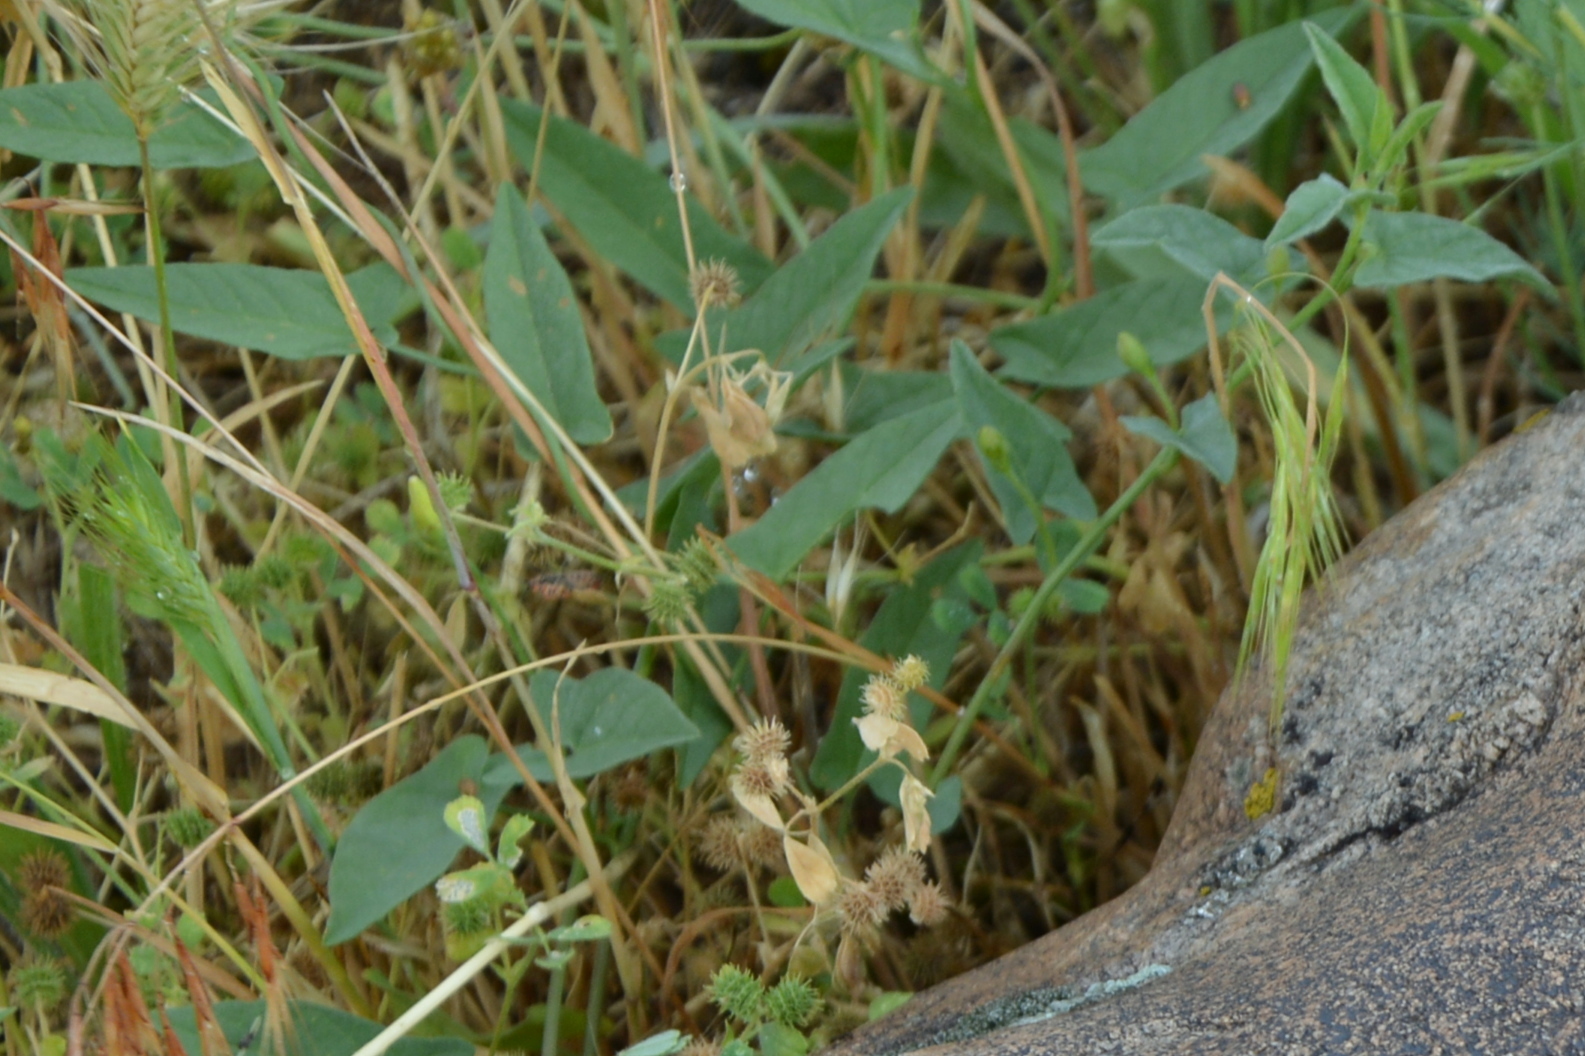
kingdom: Plantae
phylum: Tracheophyta
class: Magnoliopsida
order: Solanales
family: Convolvulaceae
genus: Convolvulus
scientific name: Convolvulus arvensis
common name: Field bindweed
